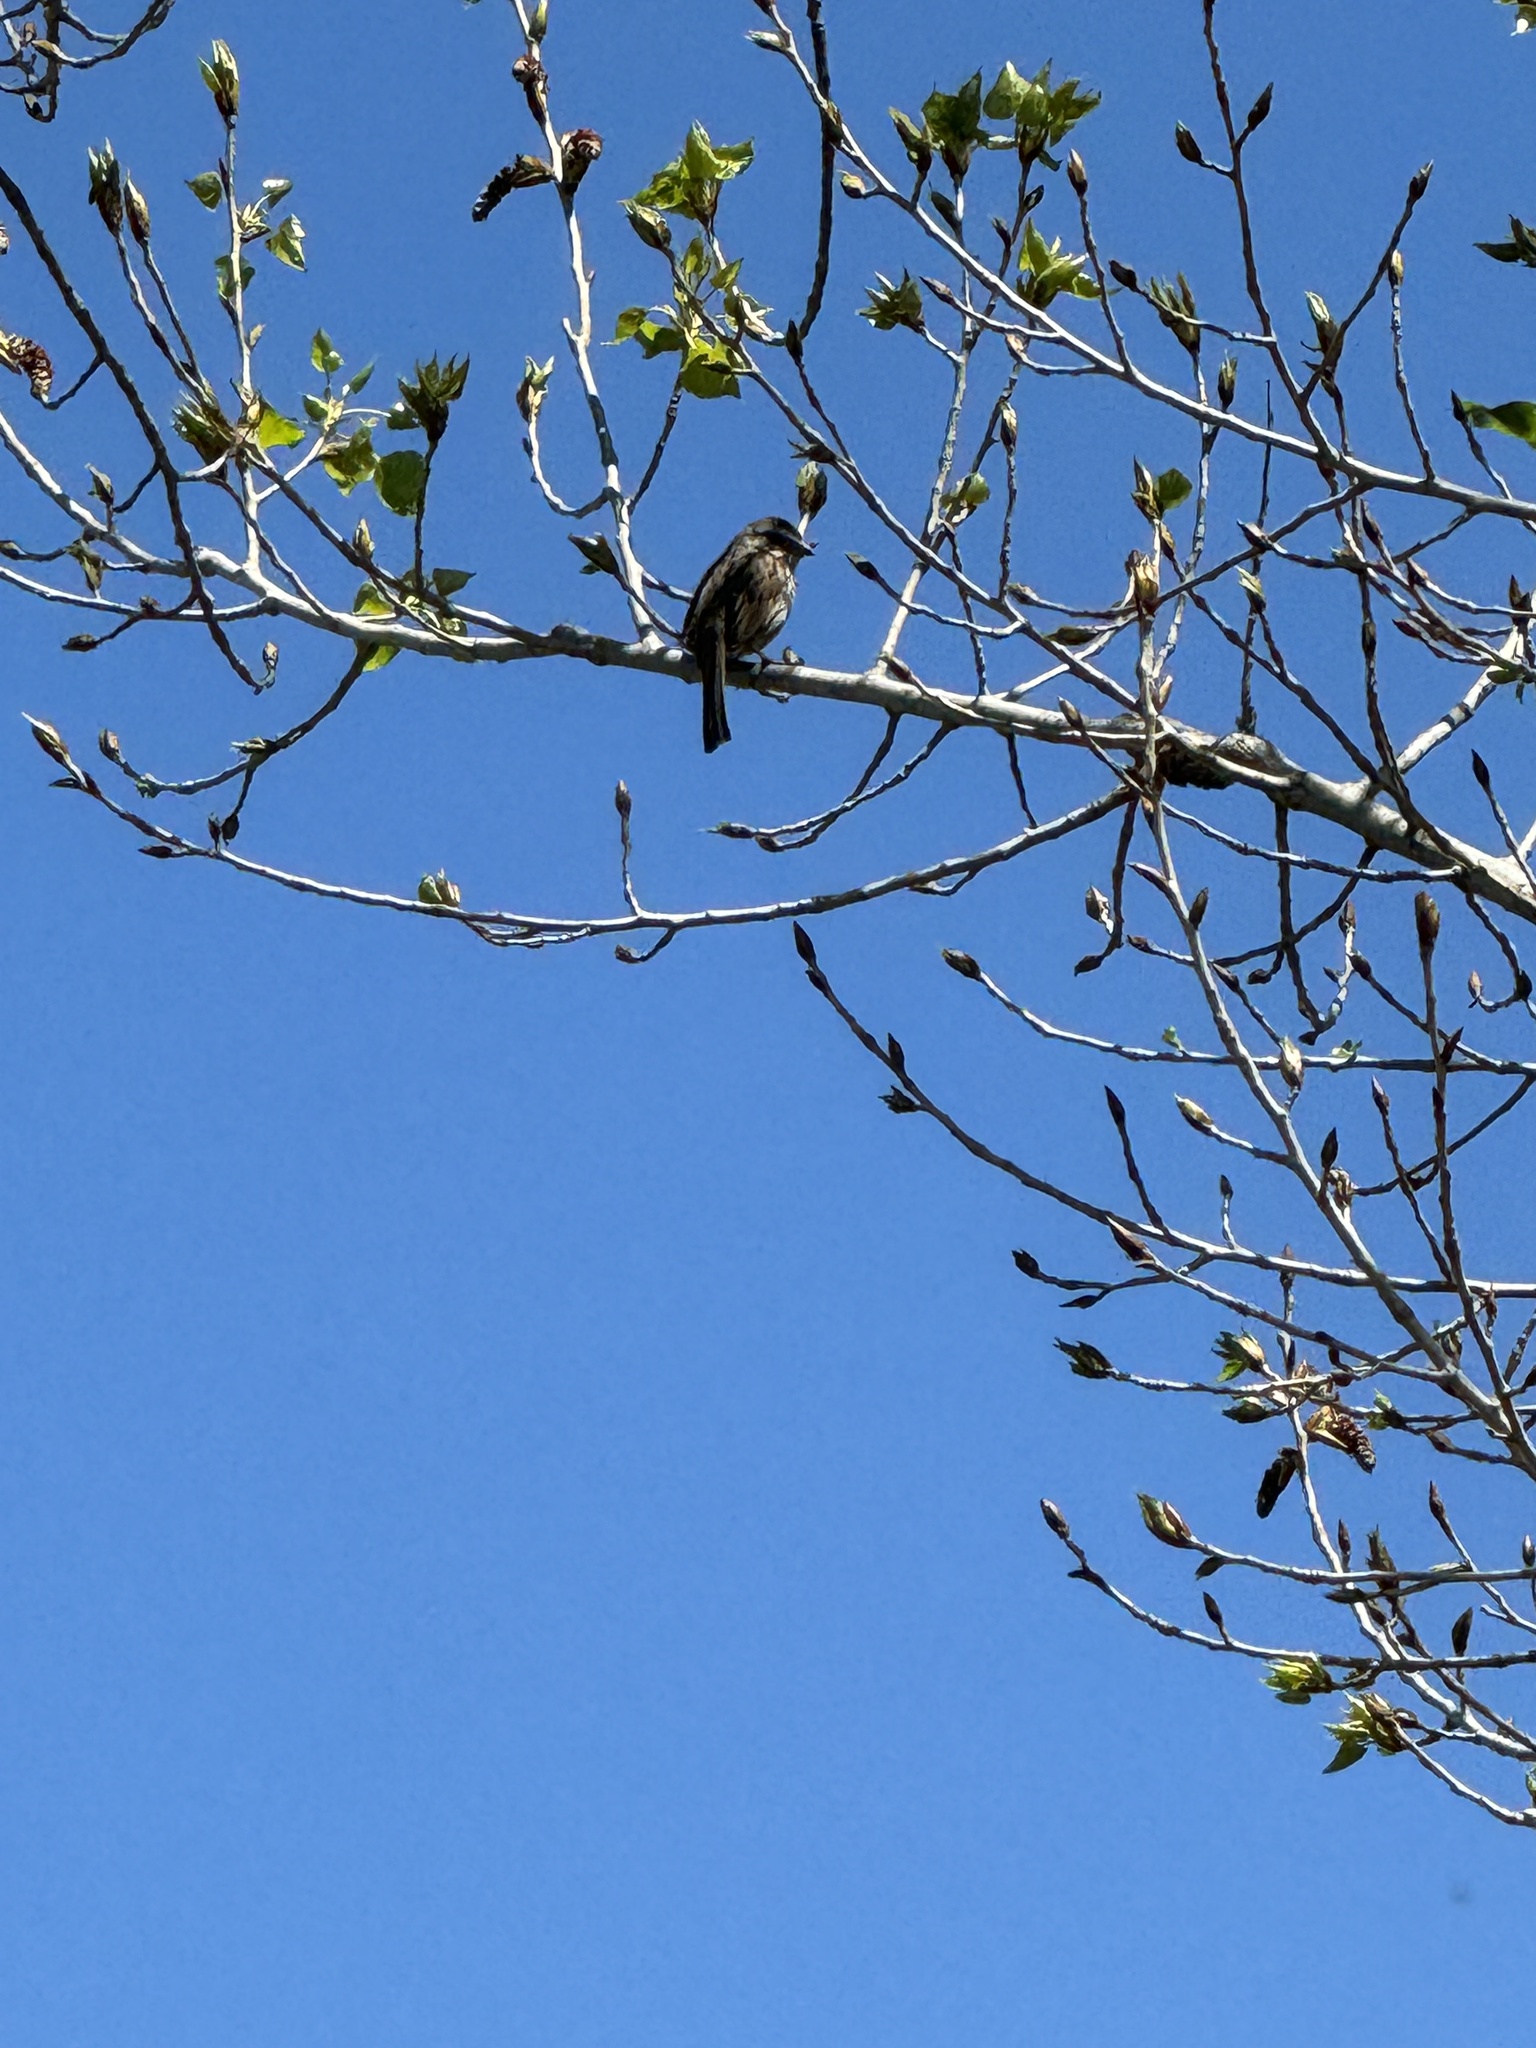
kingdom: Animalia
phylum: Chordata
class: Aves
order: Passeriformes
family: Passerellidae
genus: Melospiza
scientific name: Melospiza melodia
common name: Song sparrow
